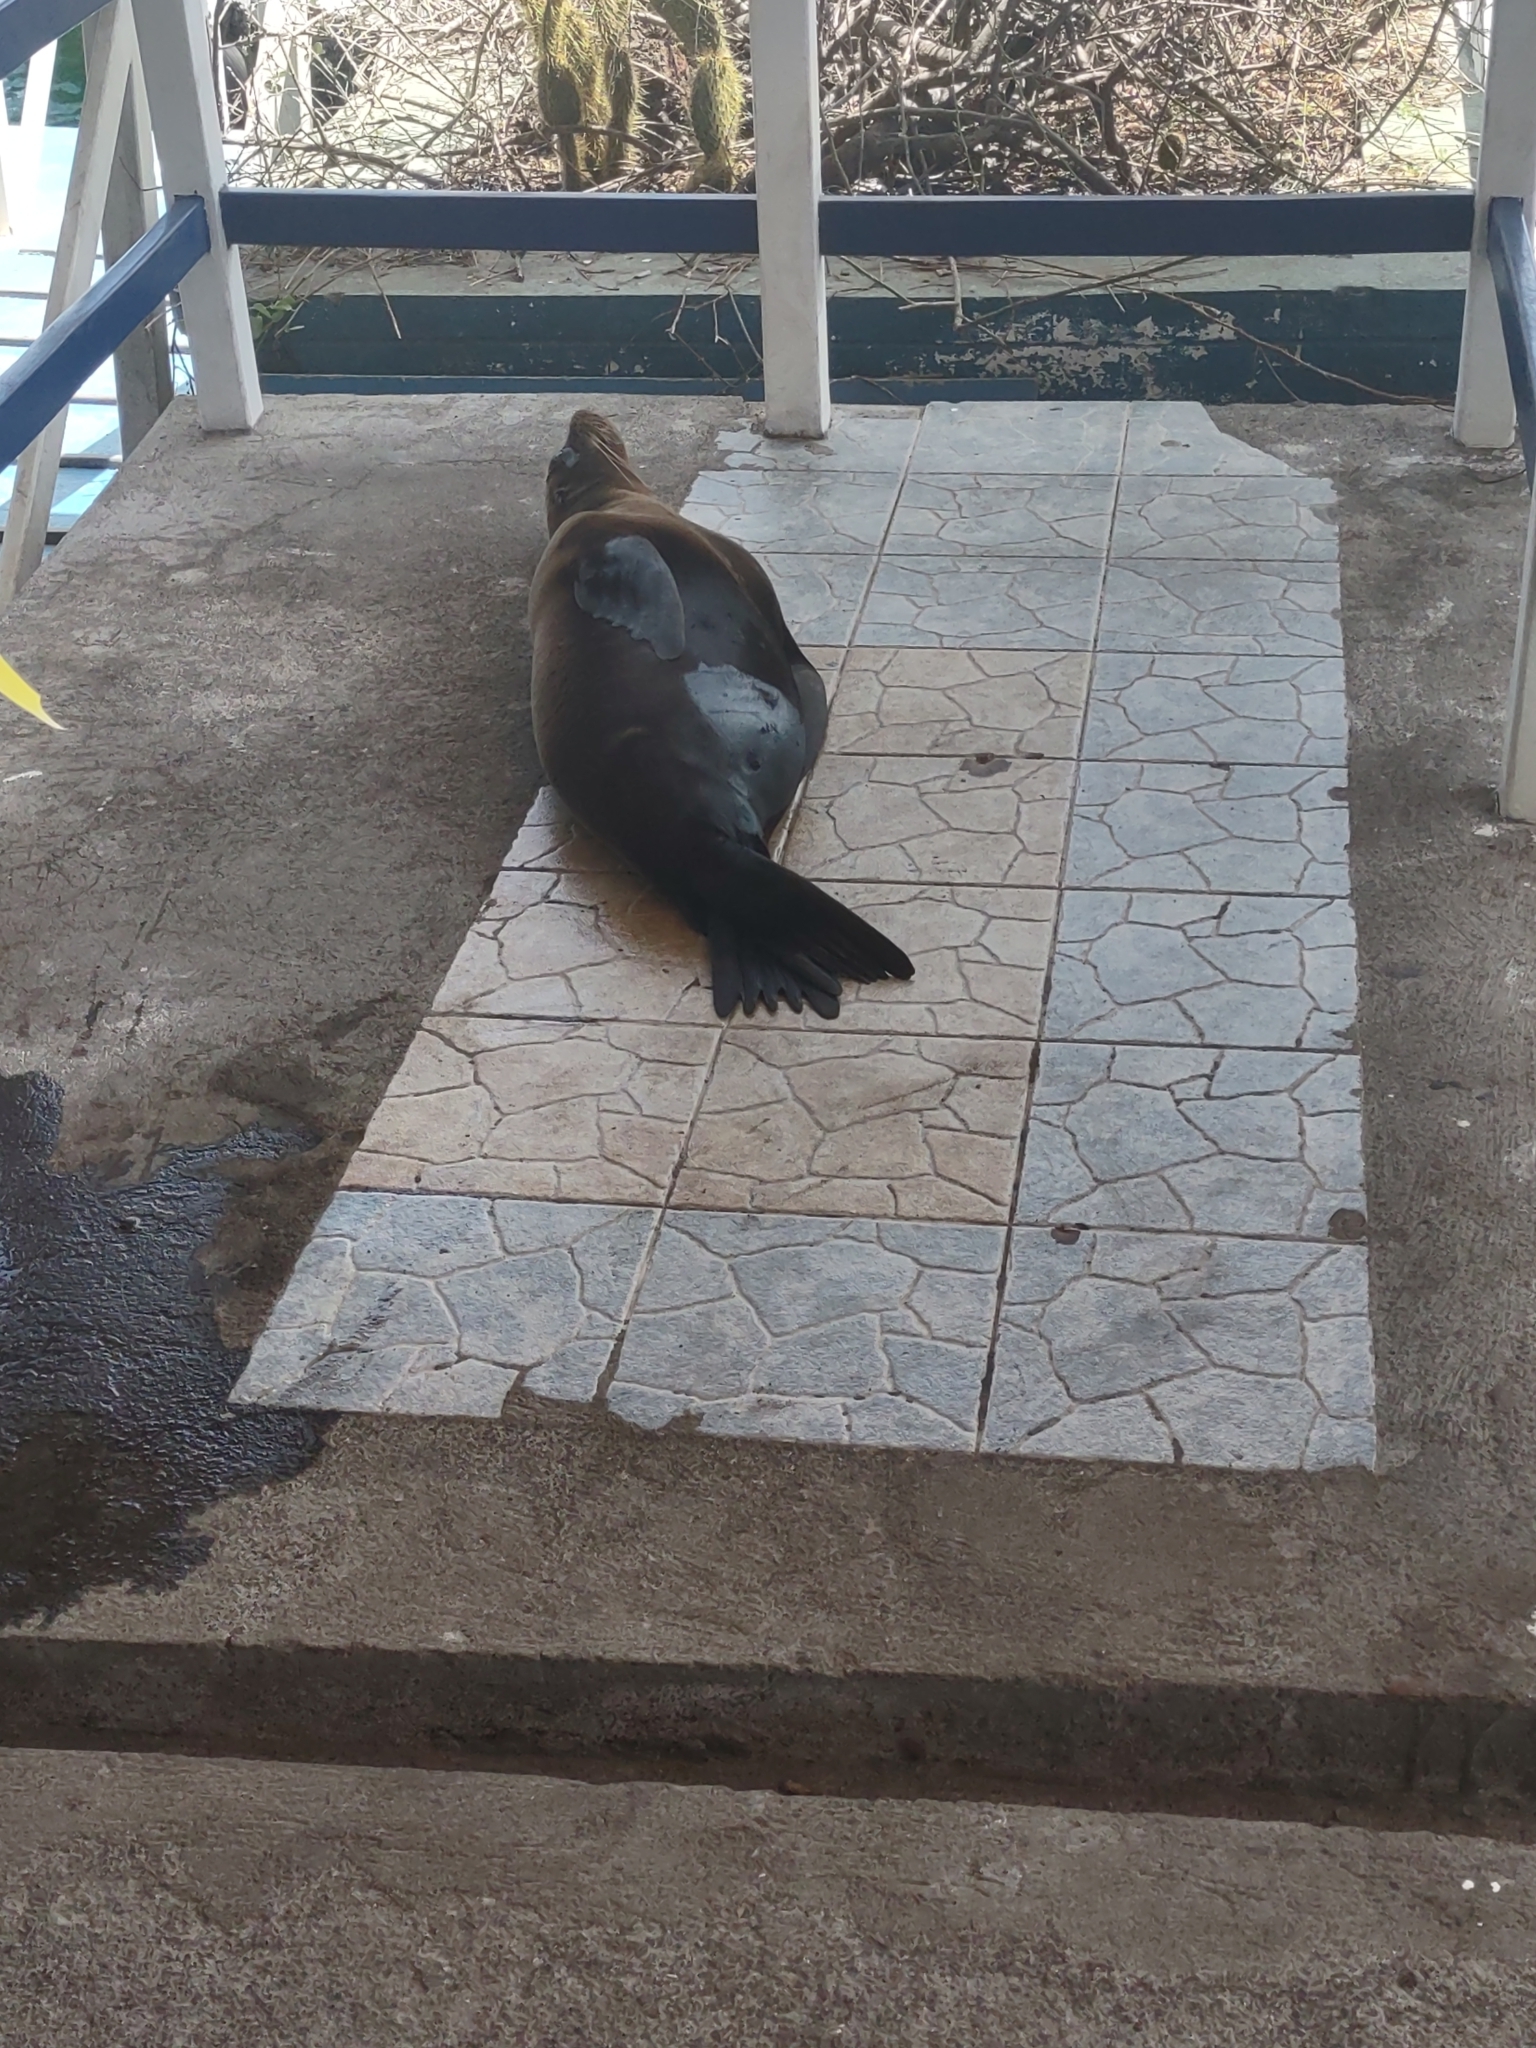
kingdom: Animalia
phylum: Chordata
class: Mammalia
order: Carnivora
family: Otariidae
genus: Zalophus
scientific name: Zalophus wollebaeki
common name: Galapagos sea lion
